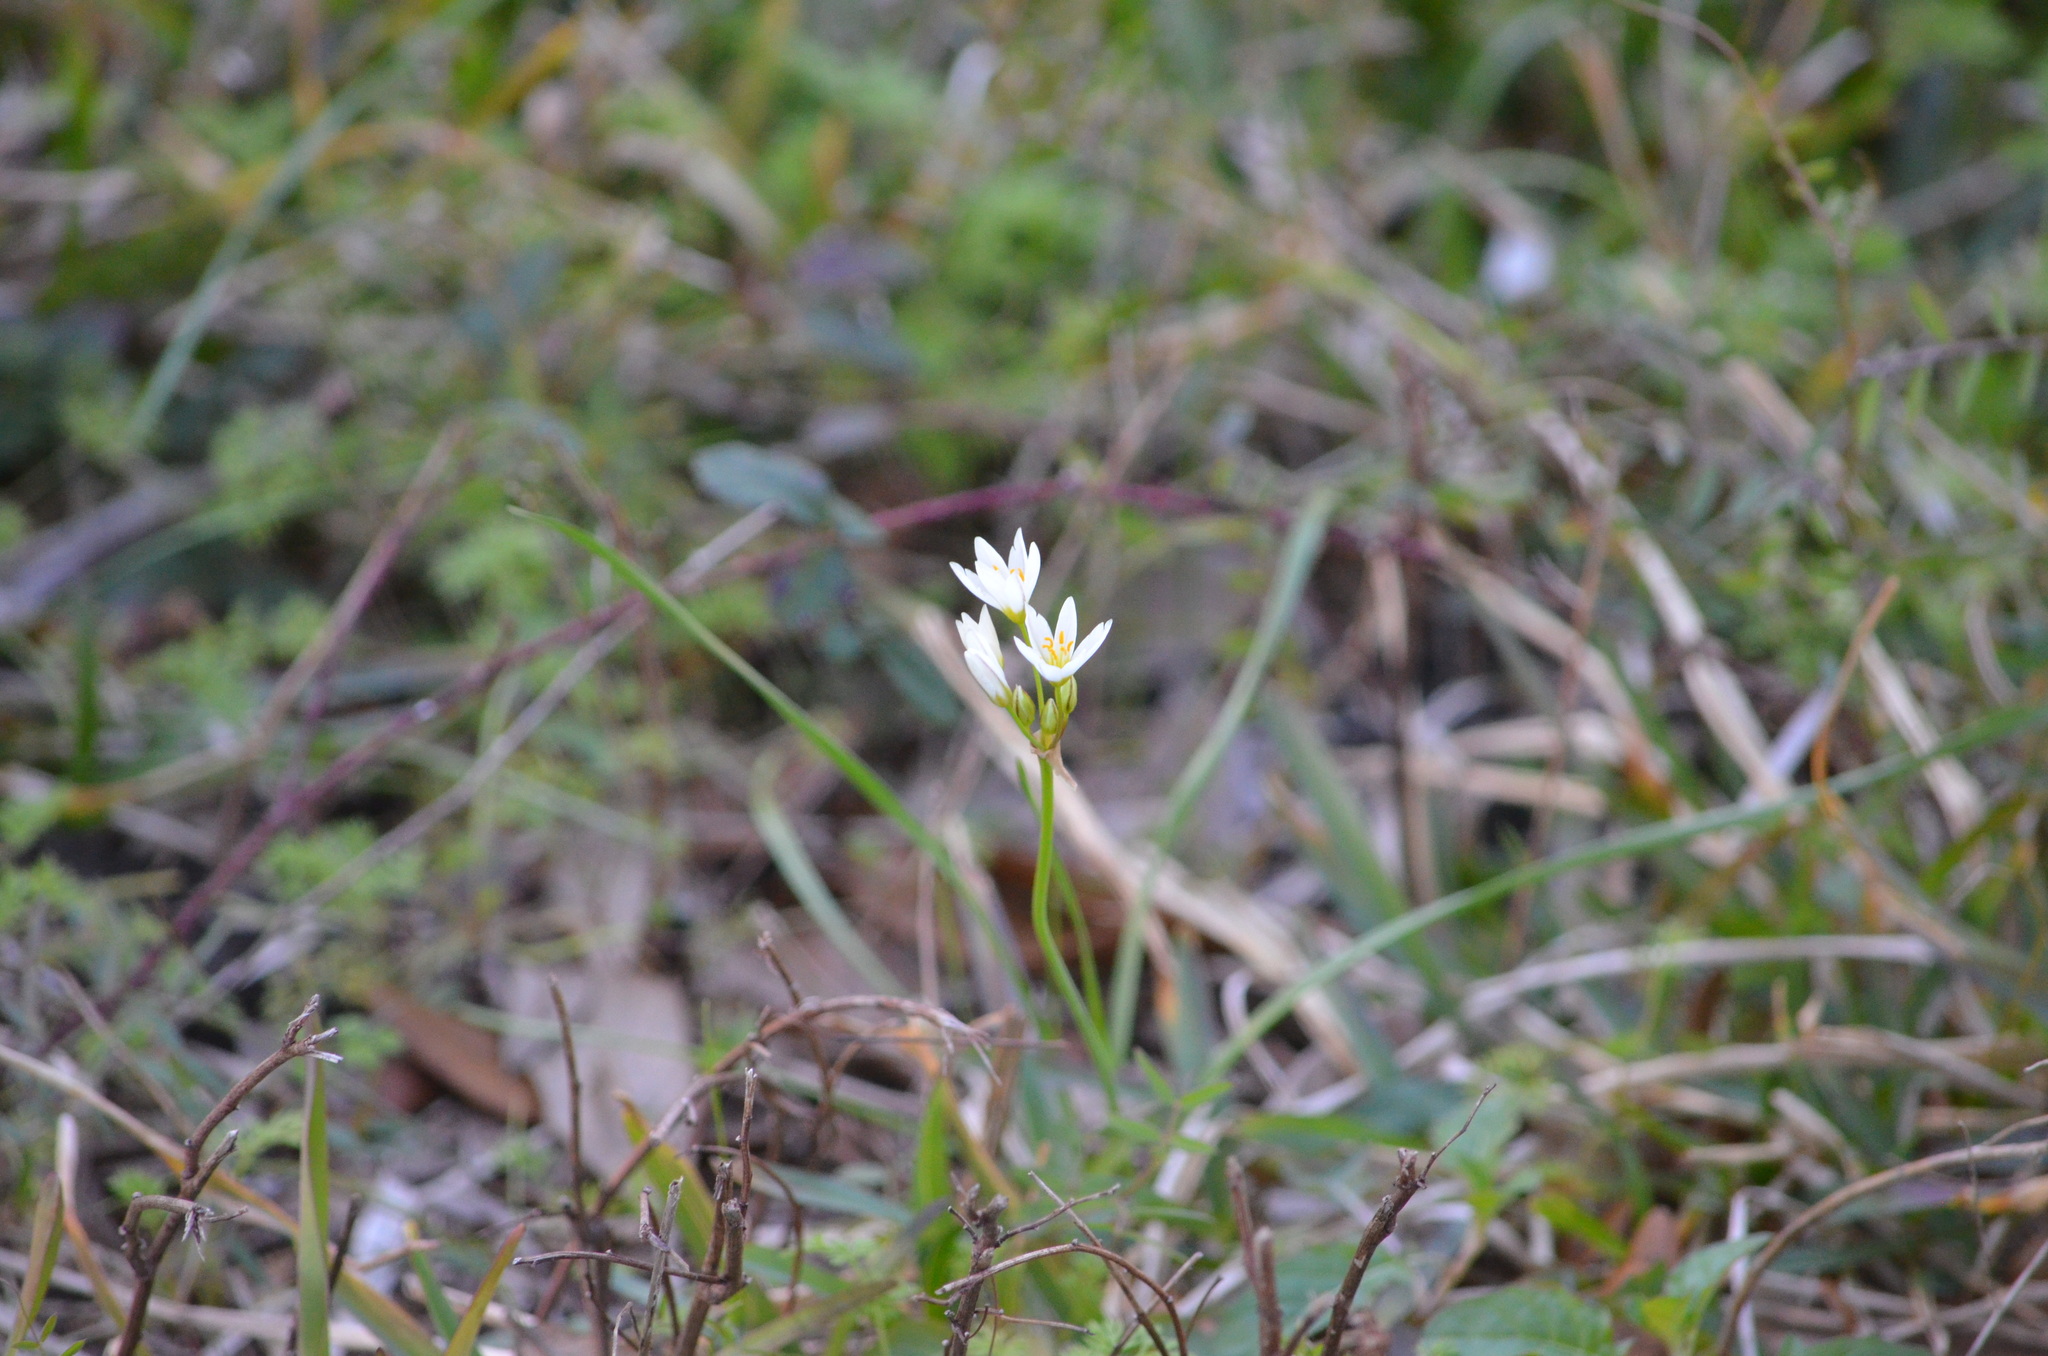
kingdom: Plantae
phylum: Tracheophyta
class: Liliopsida
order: Asparagales
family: Amaryllidaceae
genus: Nothoscordum
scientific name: Nothoscordum bivalve
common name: Crow-poison
